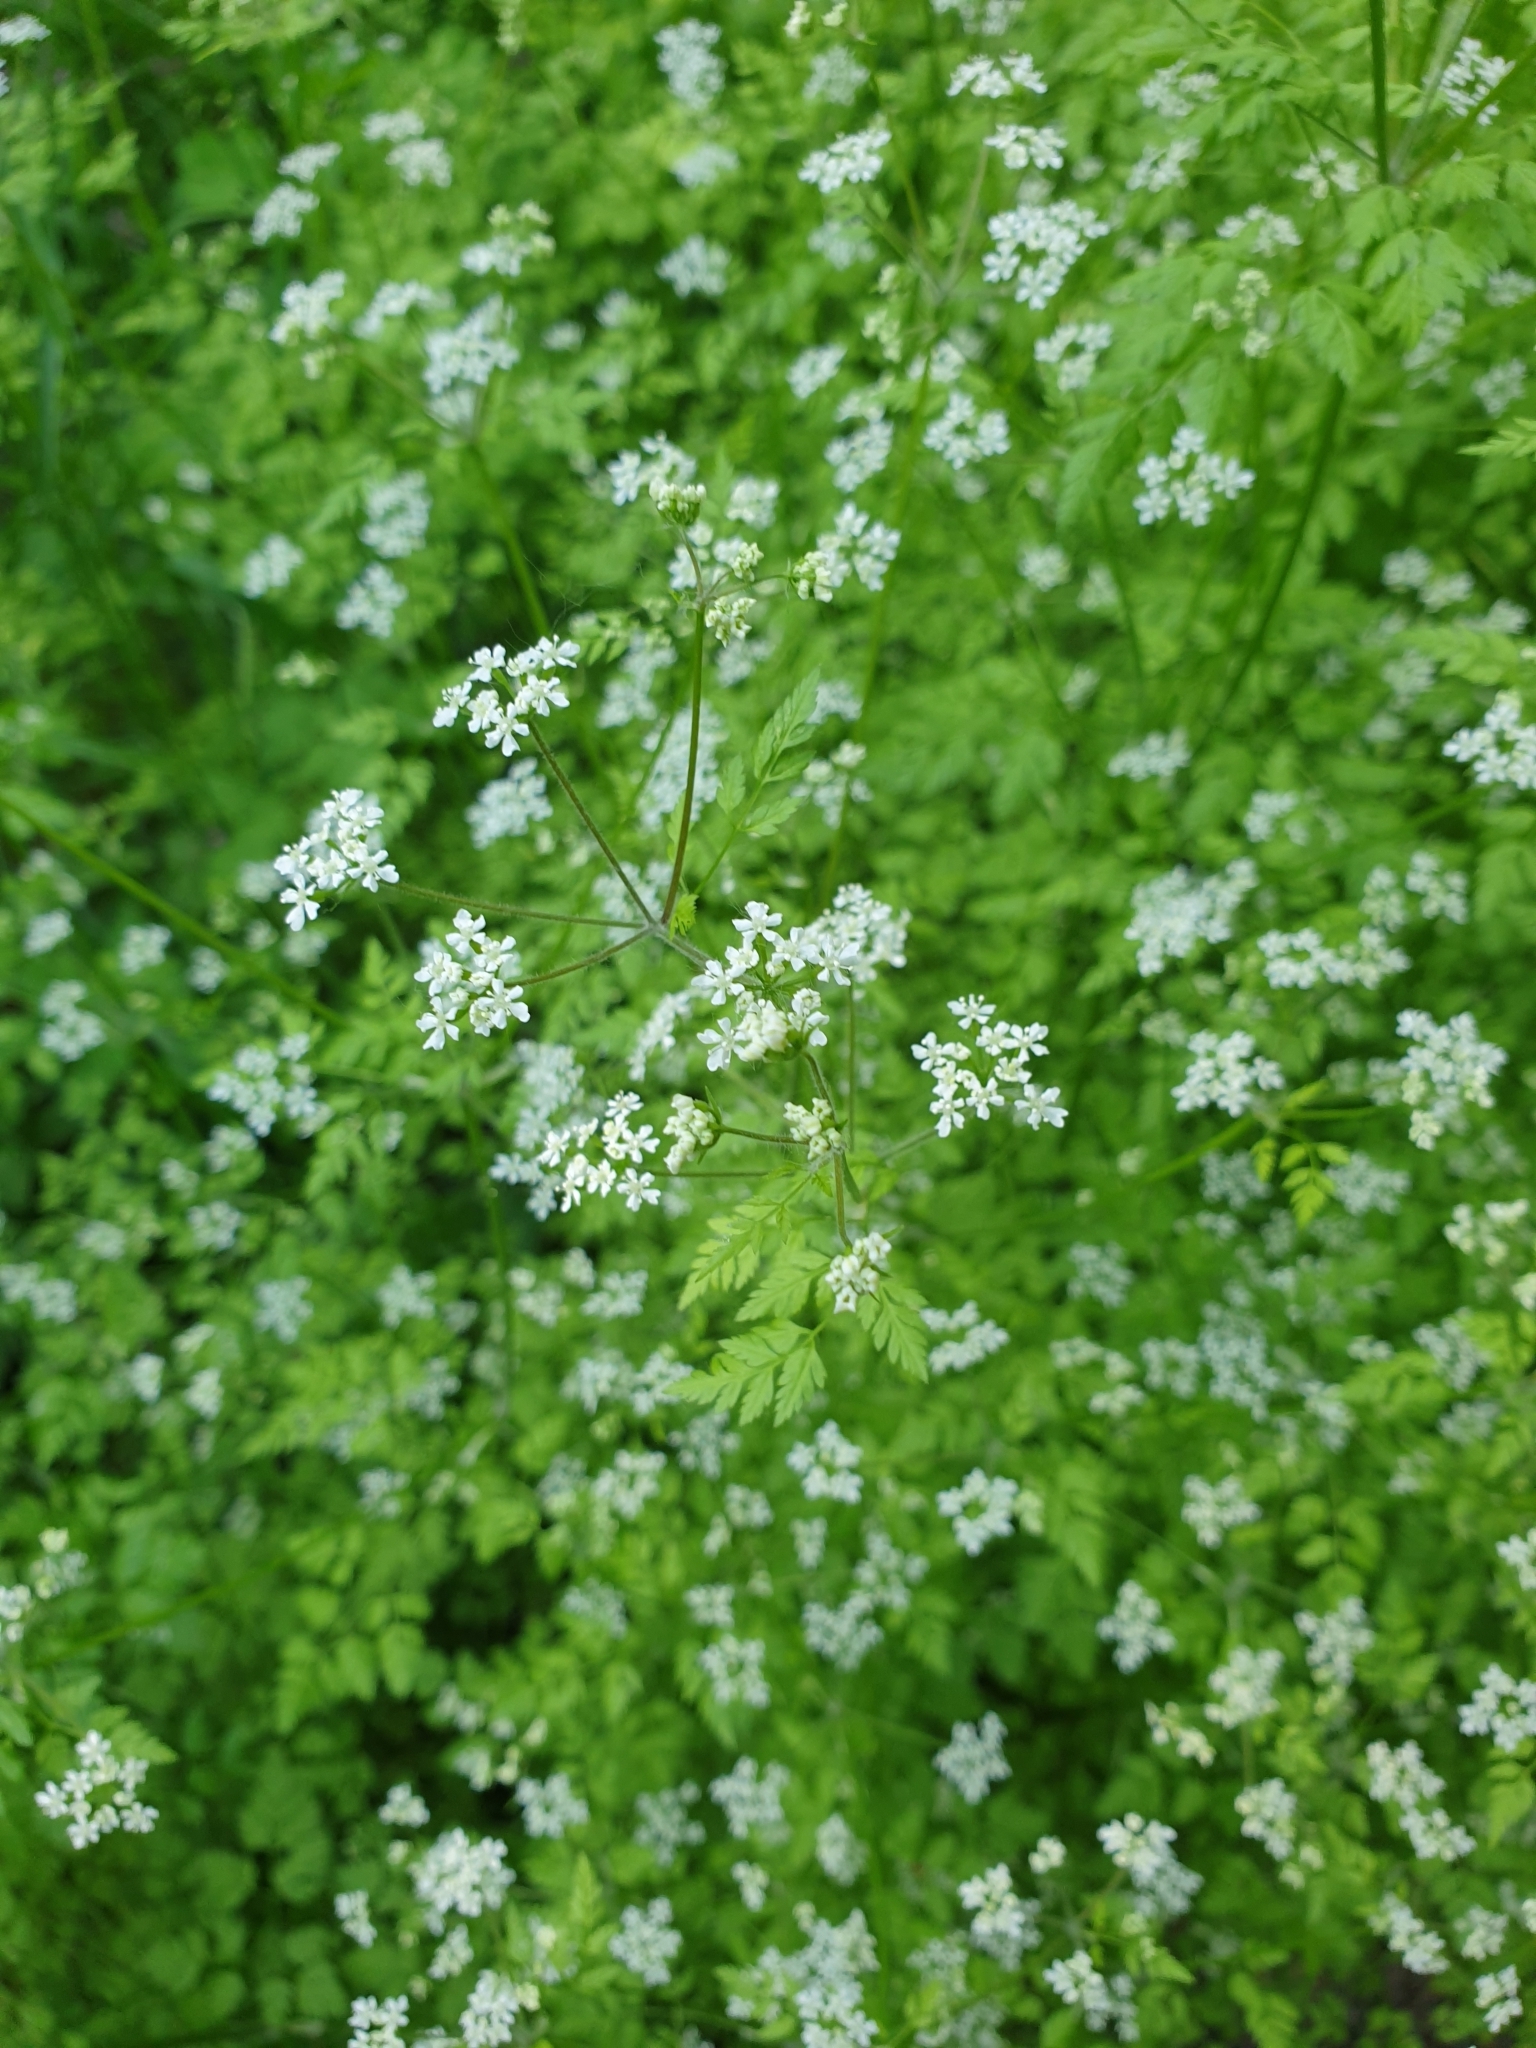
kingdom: Plantae
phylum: Tracheophyta
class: Magnoliopsida
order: Apiales
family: Apiaceae
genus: Chaerophyllum
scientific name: Chaerophyllum temulum
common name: Rough chervil
